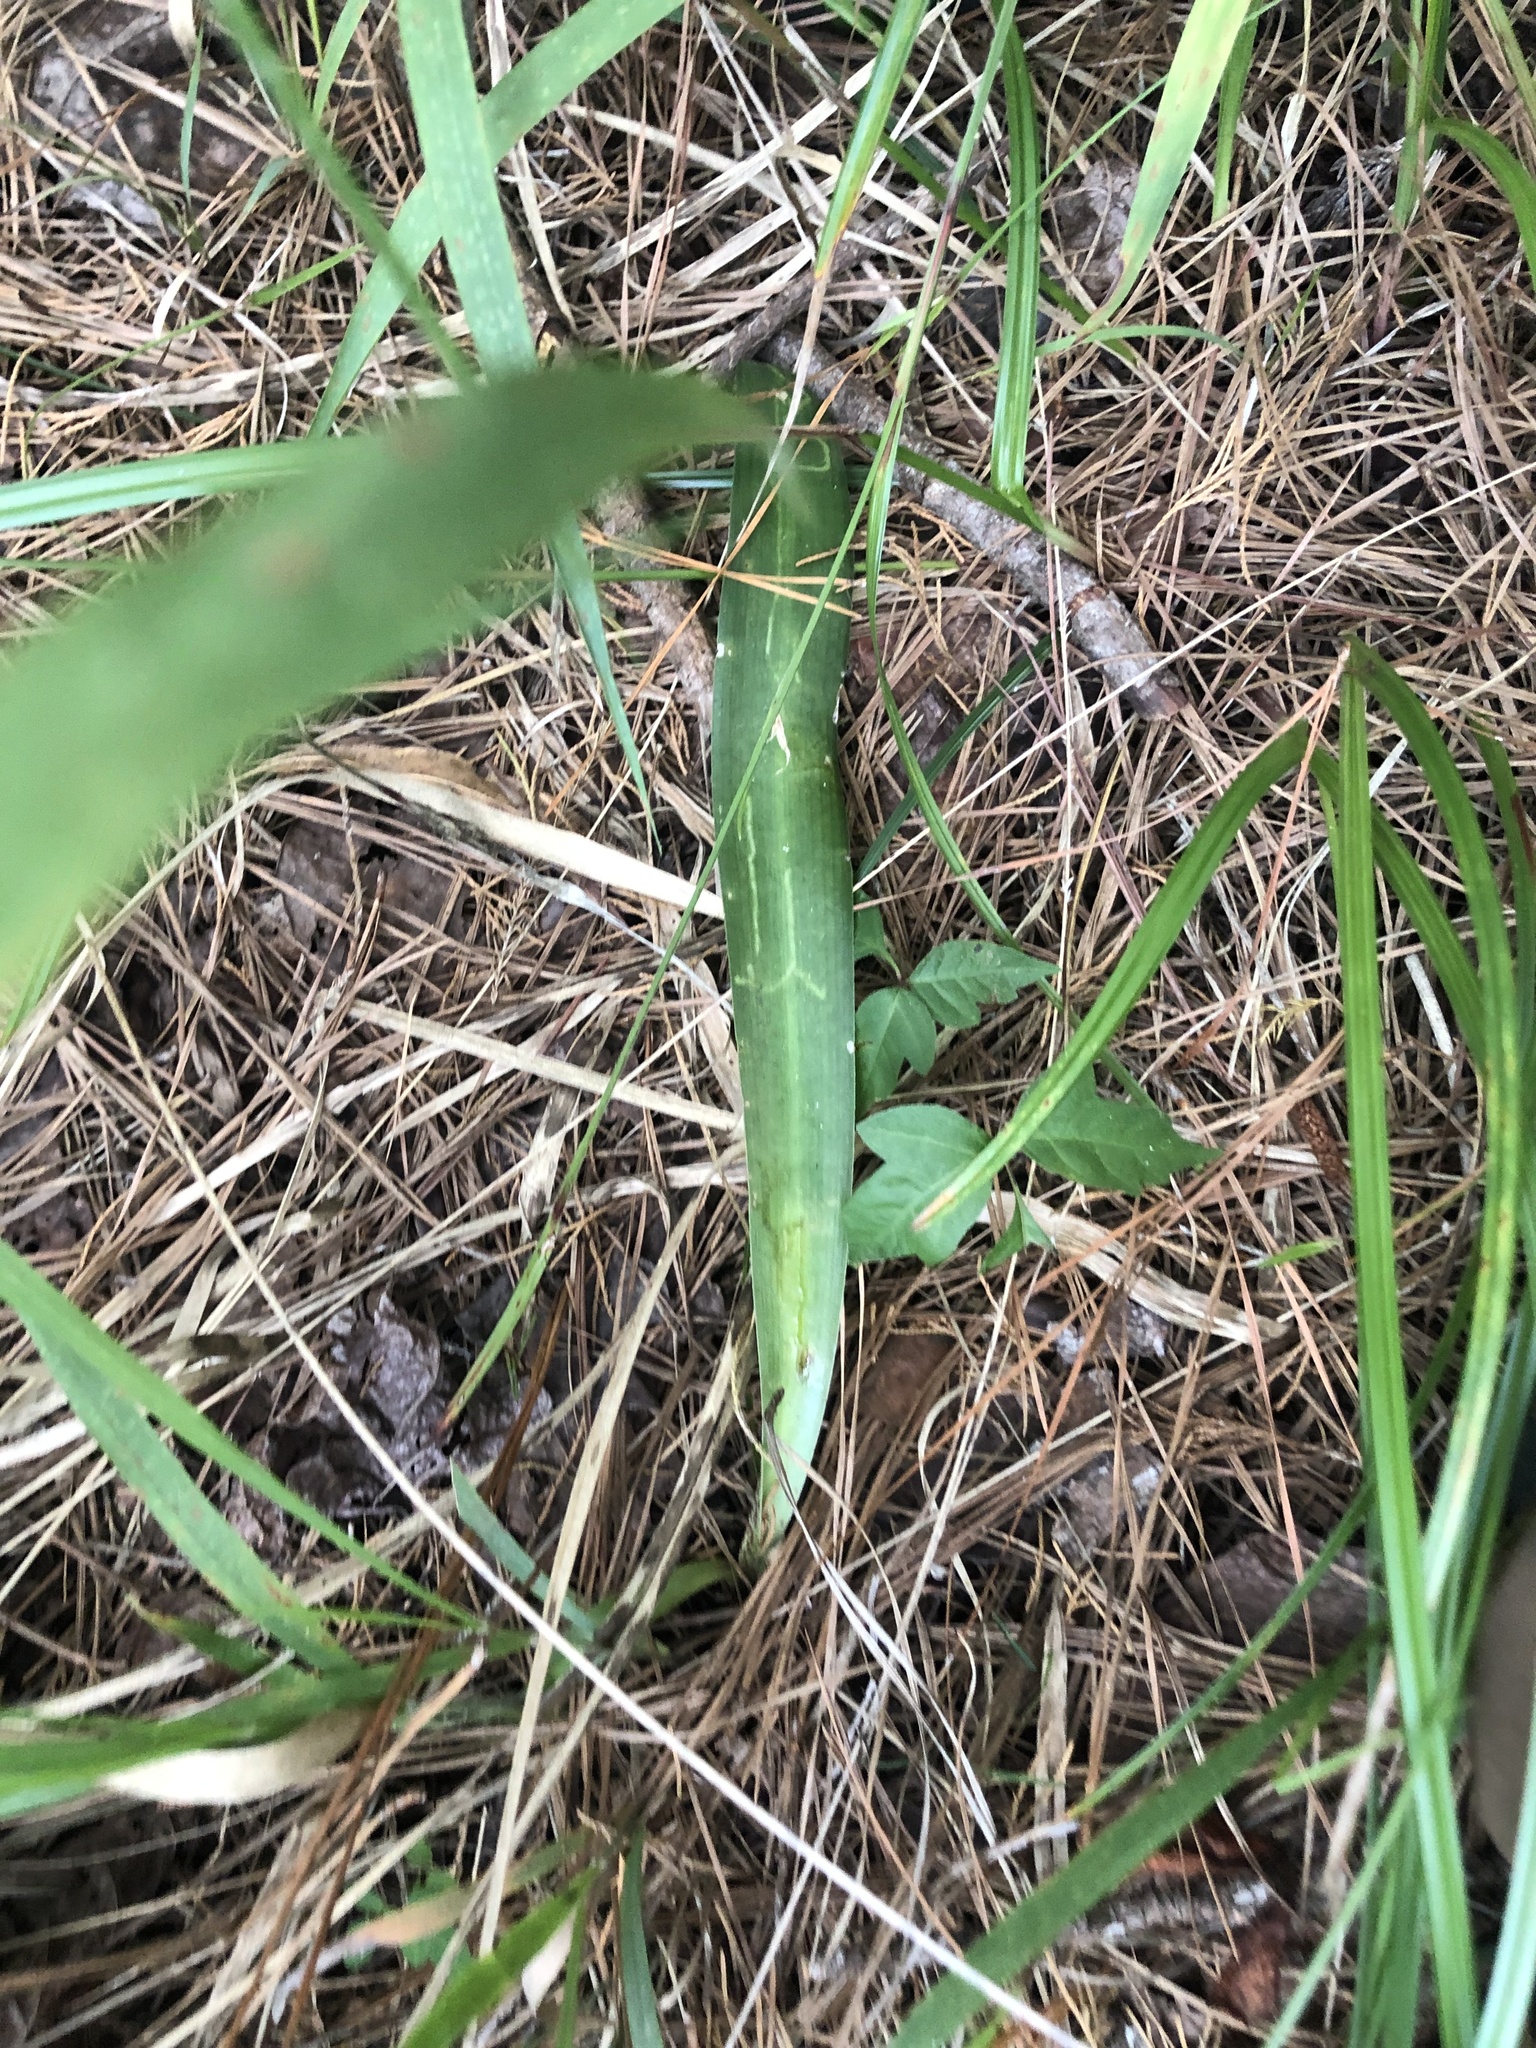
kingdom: Plantae
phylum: Tracheophyta
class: Liliopsida
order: Asparagales
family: Asparagaceae
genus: Agave
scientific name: Agave virginica
